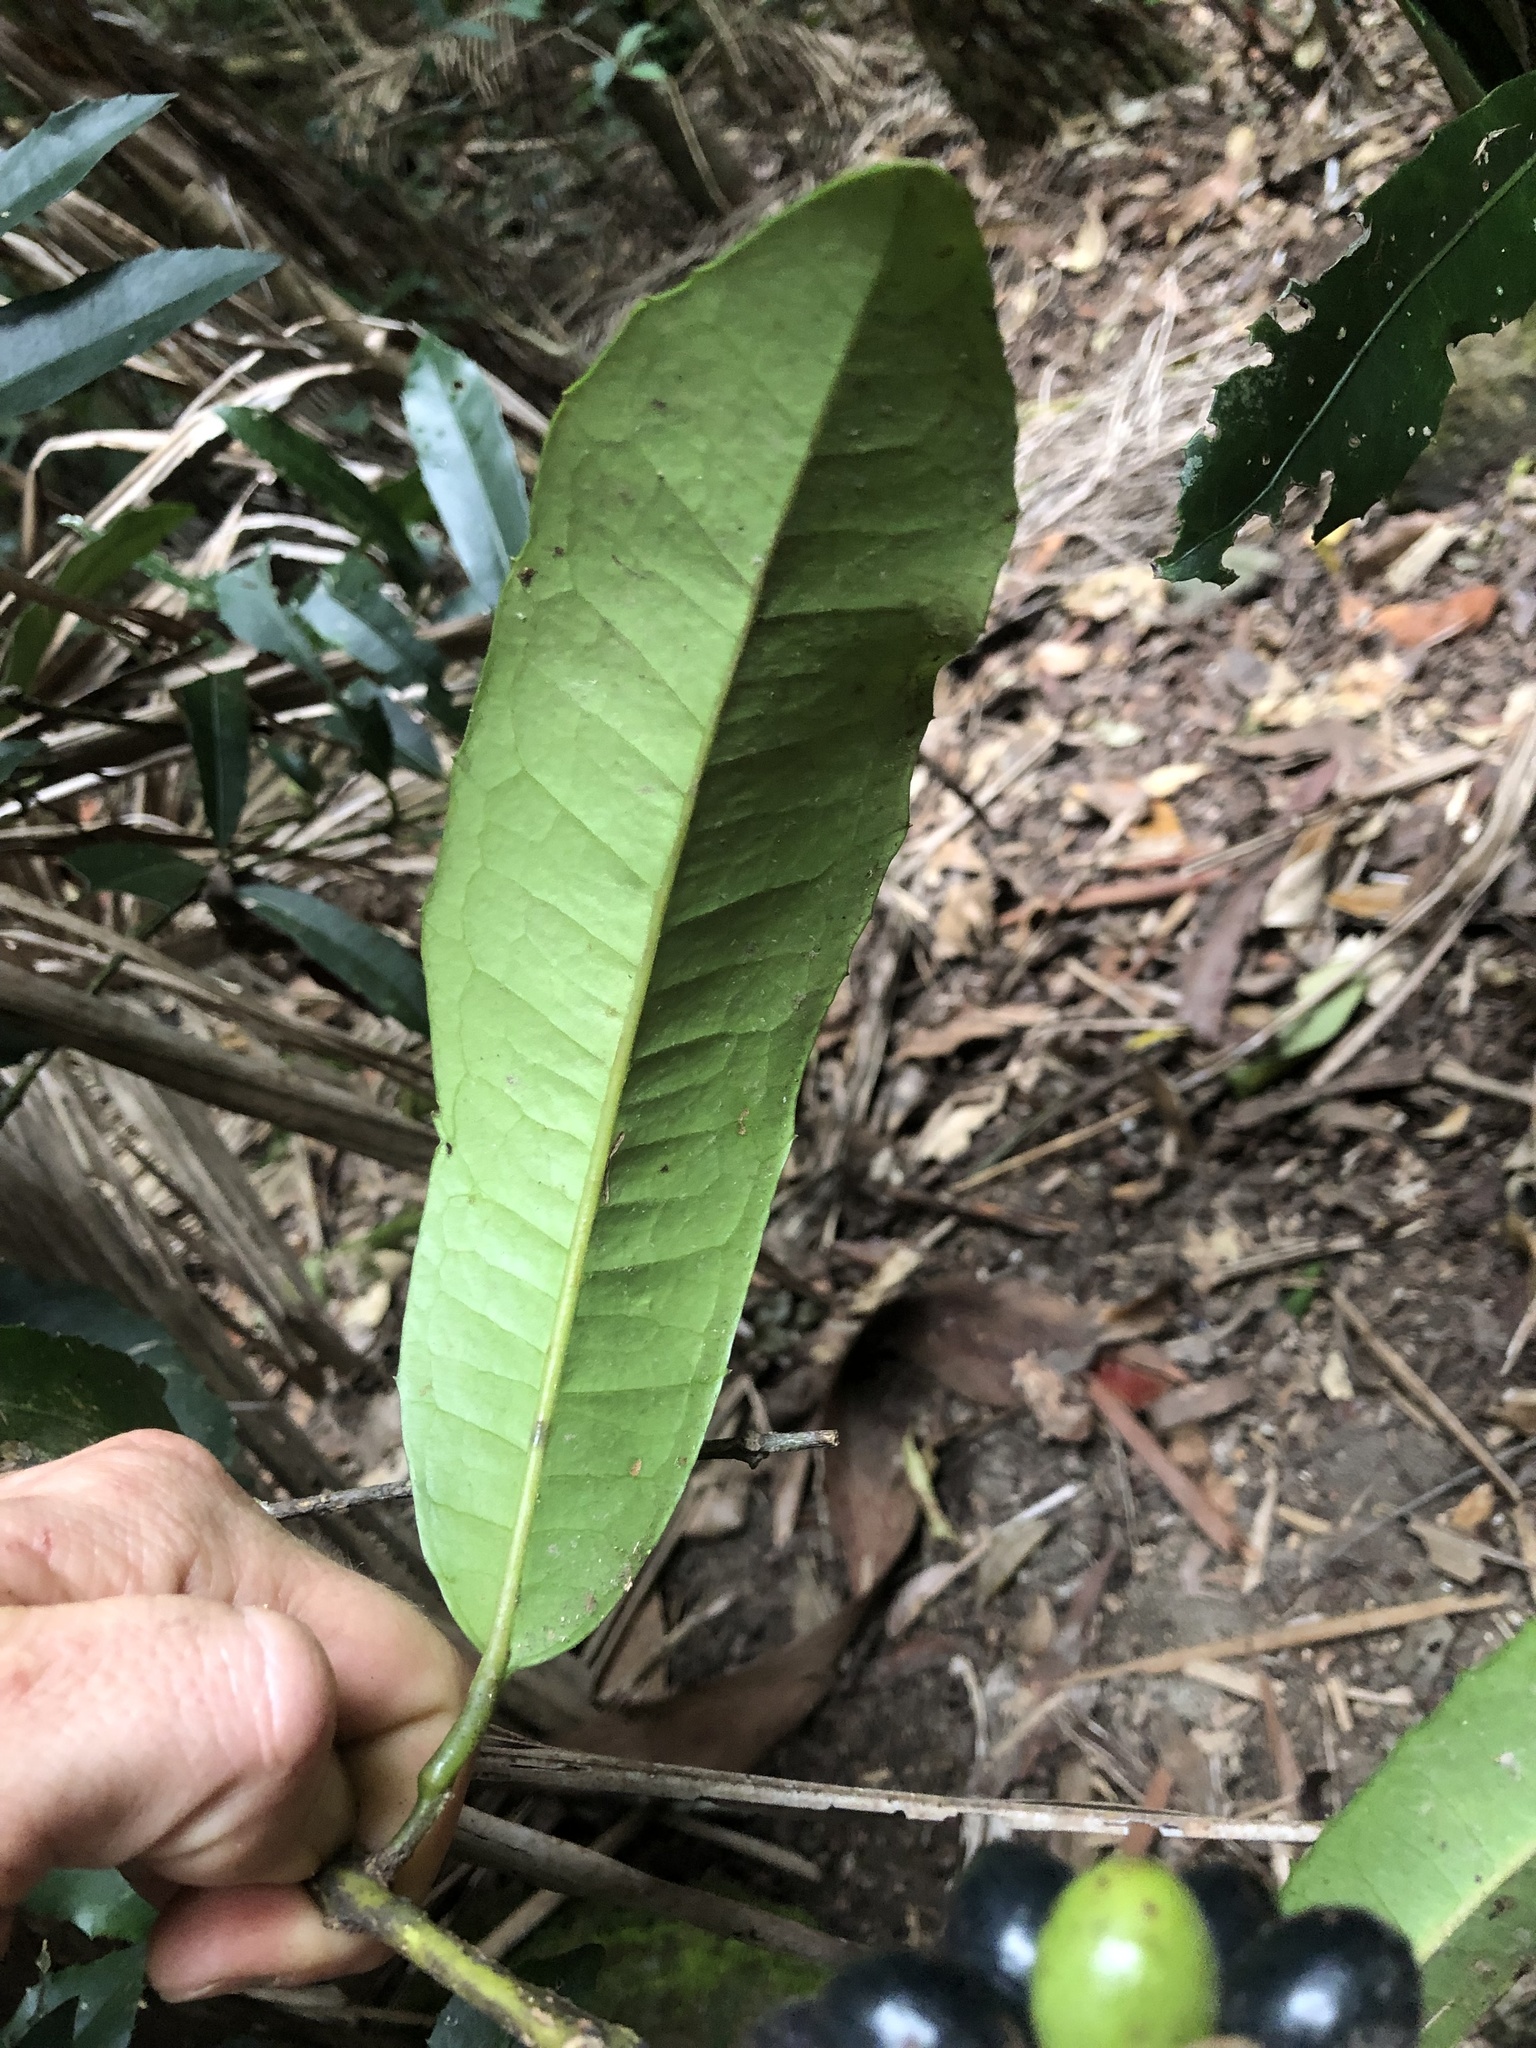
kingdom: Plantae
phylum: Tracheophyta
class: Magnoliopsida
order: Laurales
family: Monimiaceae
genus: Wilkiea
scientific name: Wilkiea austroqueenslandica
